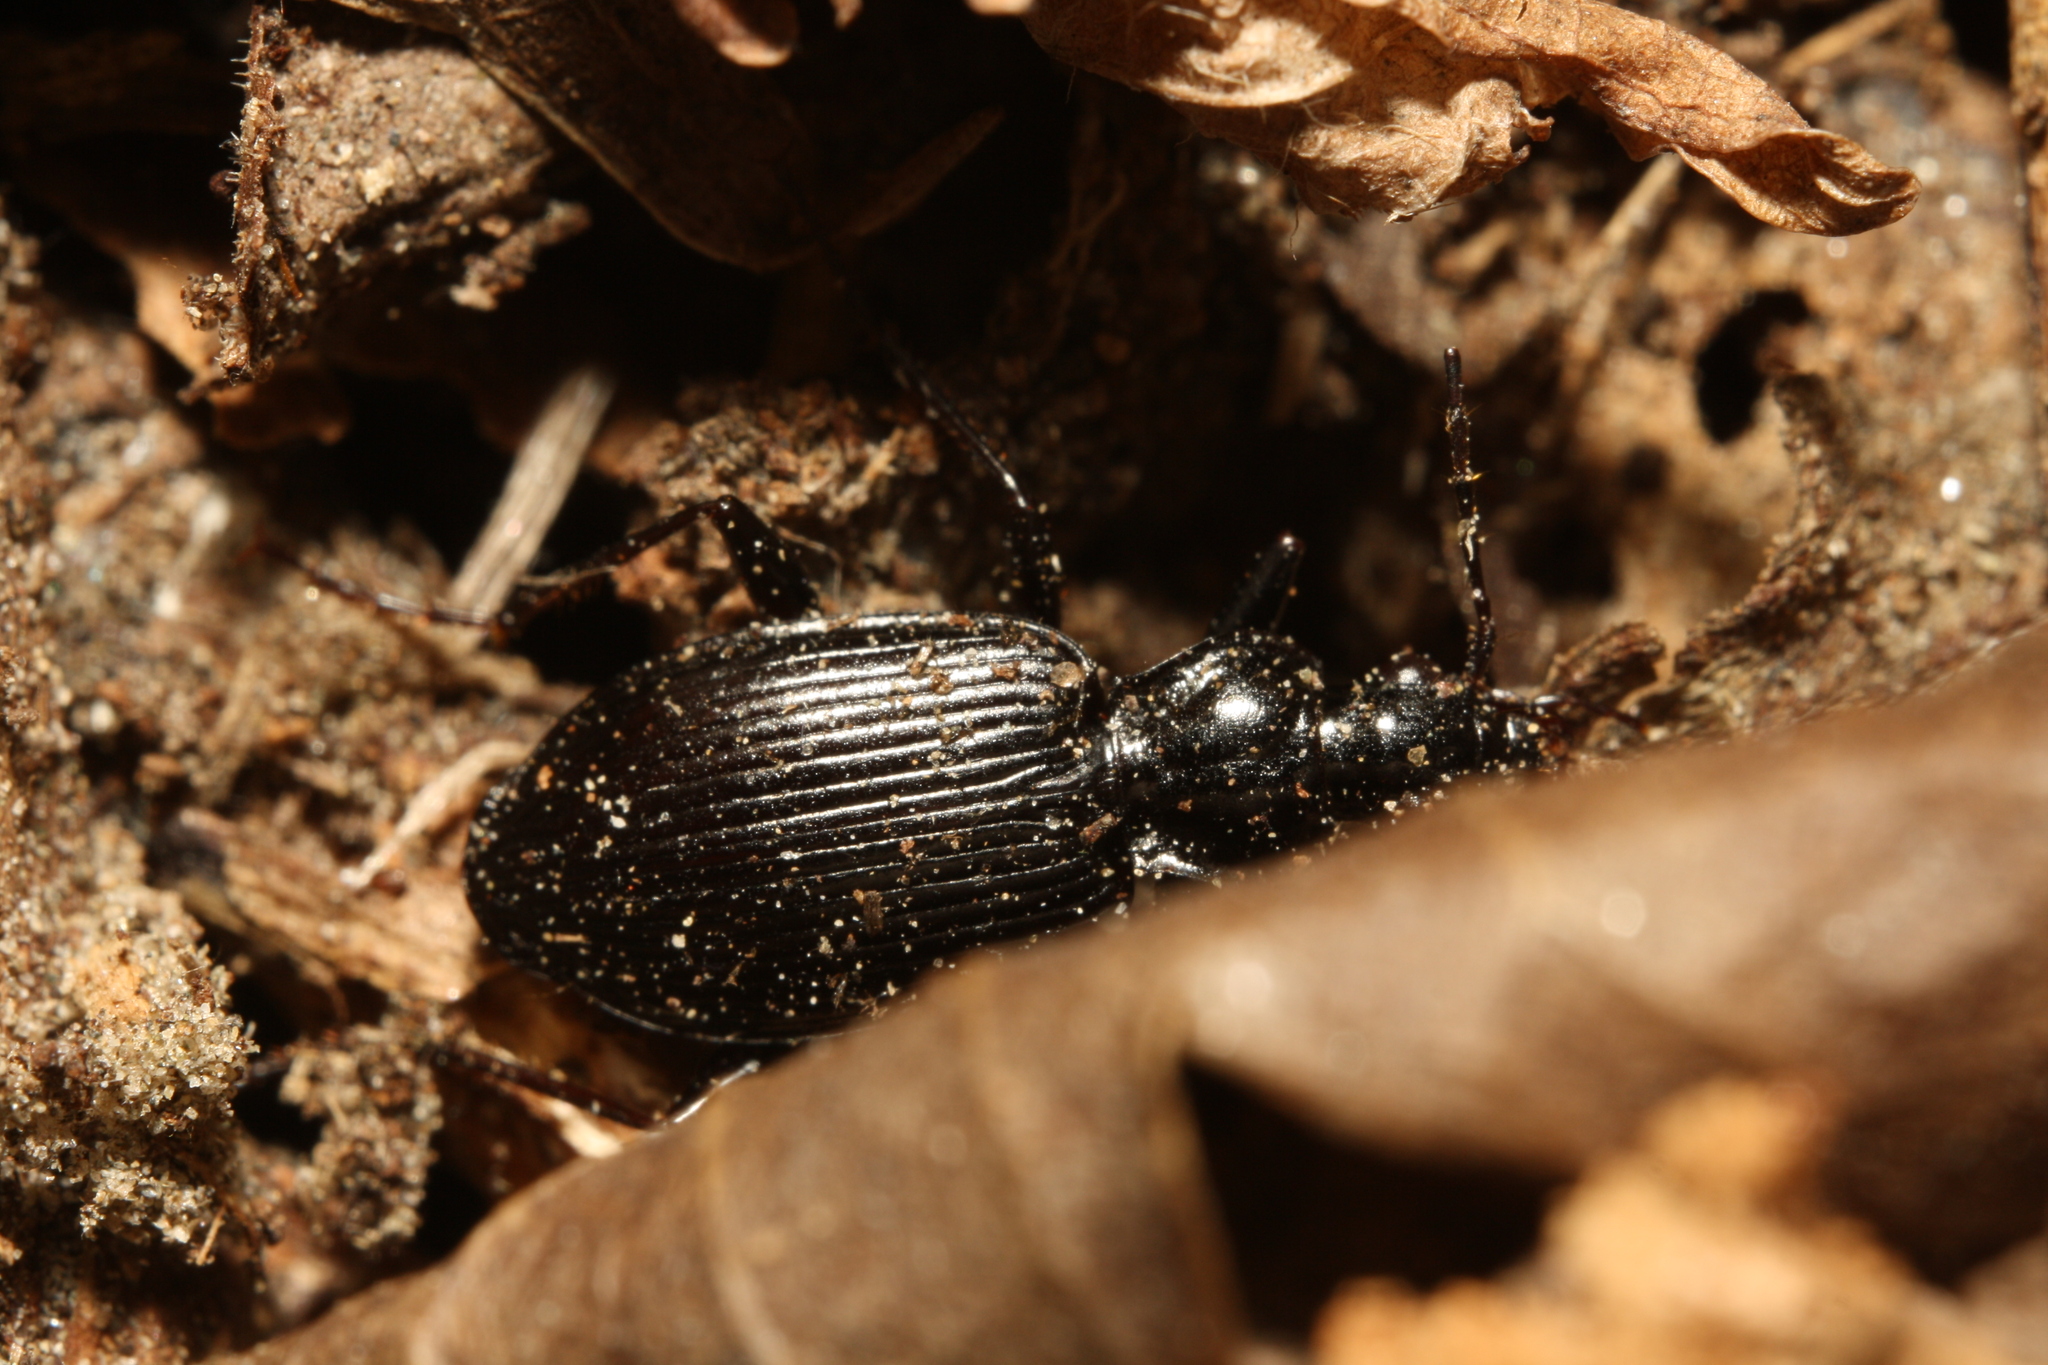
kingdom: Animalia
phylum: Arthropoda
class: Insecta
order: Coleoptera
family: Carabidae
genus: Platynus
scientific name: Platynus assimilis
